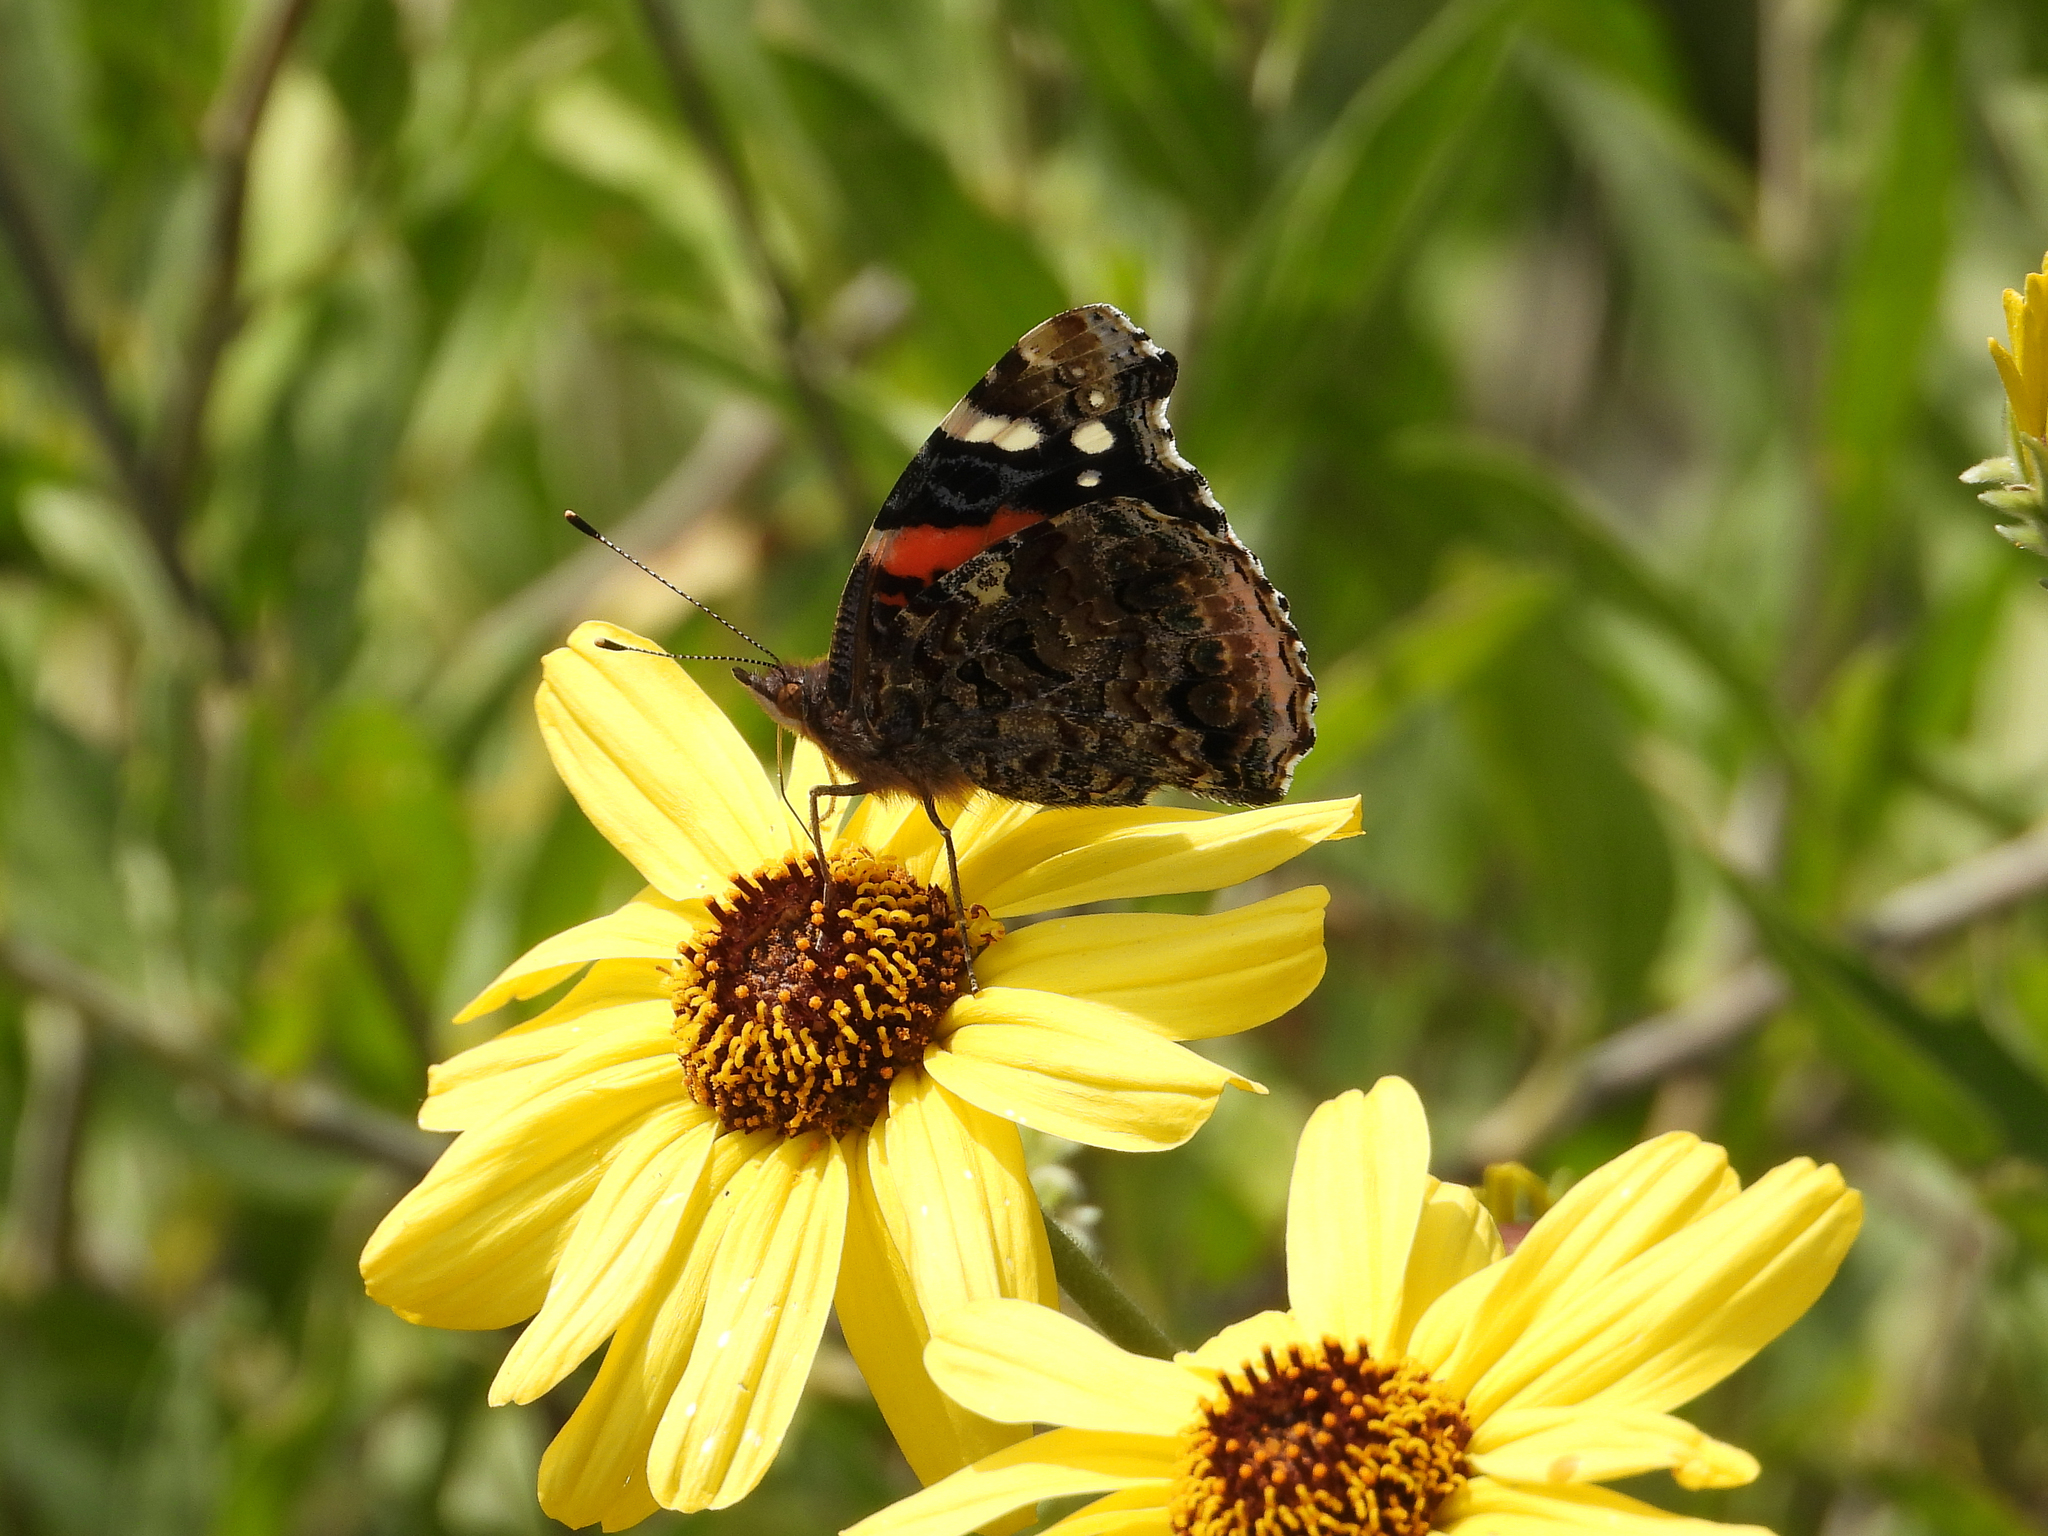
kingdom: Animalia
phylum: Arthropoda
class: Insecta
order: Lepidoptera
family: Nymphalidae
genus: Vanessa
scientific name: Vanessa atalanta
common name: Red admiral
